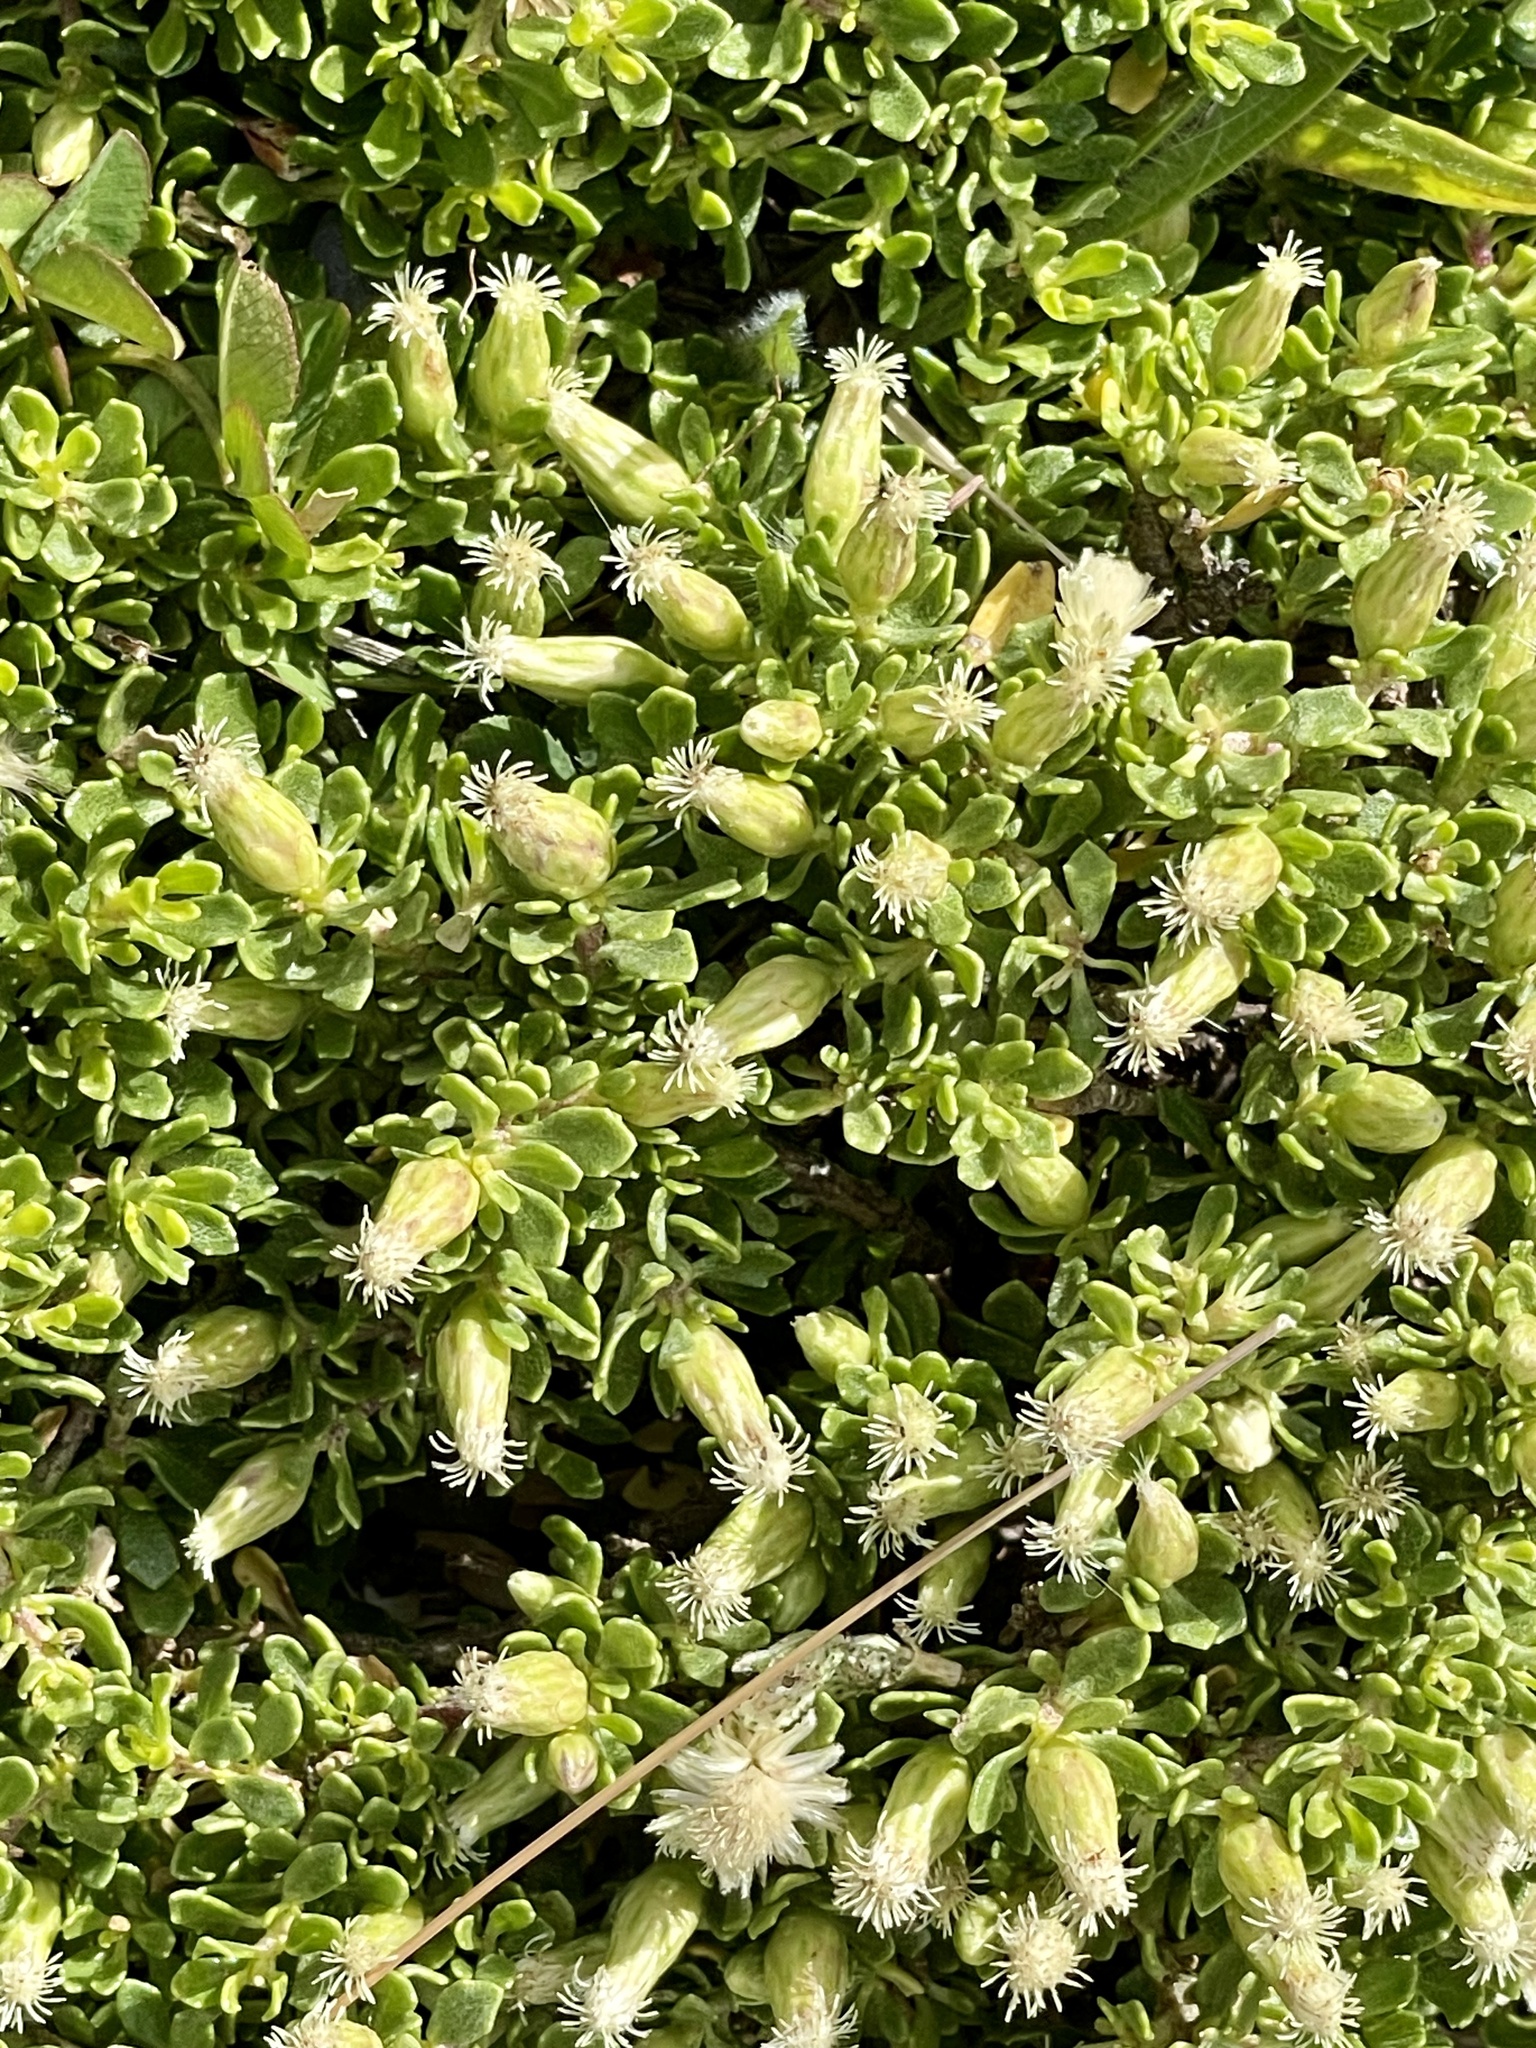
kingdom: Plantae
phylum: Tracheophyta
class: Magnoliopsida
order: Asterales
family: Asteraceae
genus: Baccharis
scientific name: Baccharis magellanica
